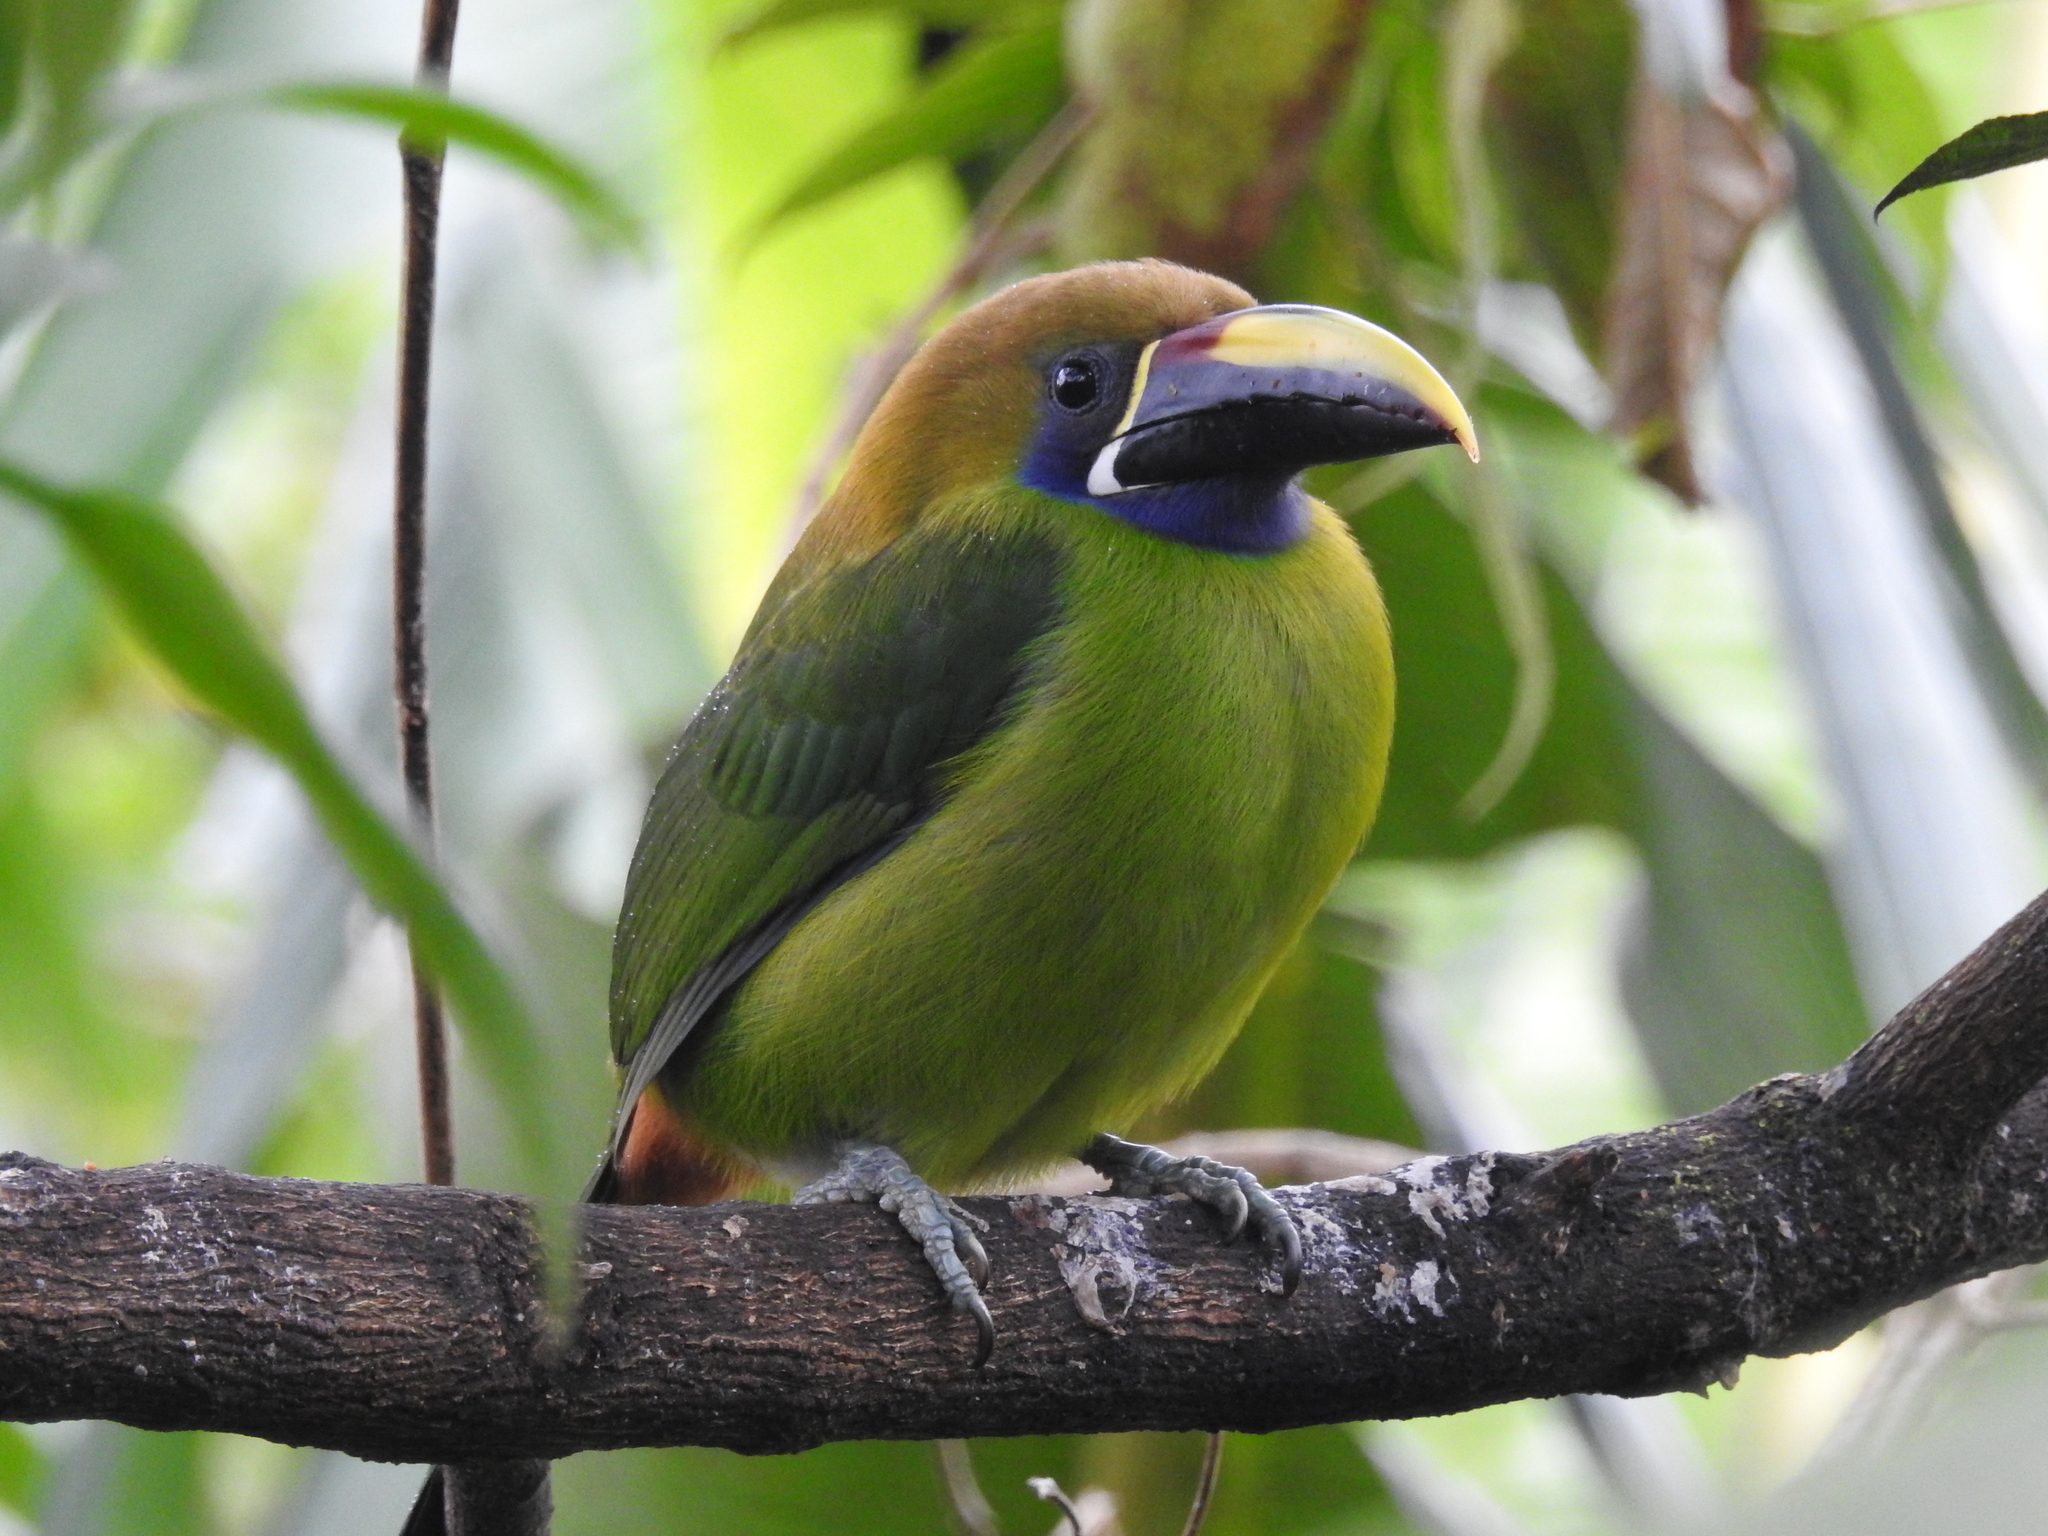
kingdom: Animalia
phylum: Chordata
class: Aves
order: Piciformes
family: Ramphastidae
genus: Aulacorhynchus
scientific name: Aulacorhynchus prasinus
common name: Emerald toucanet
